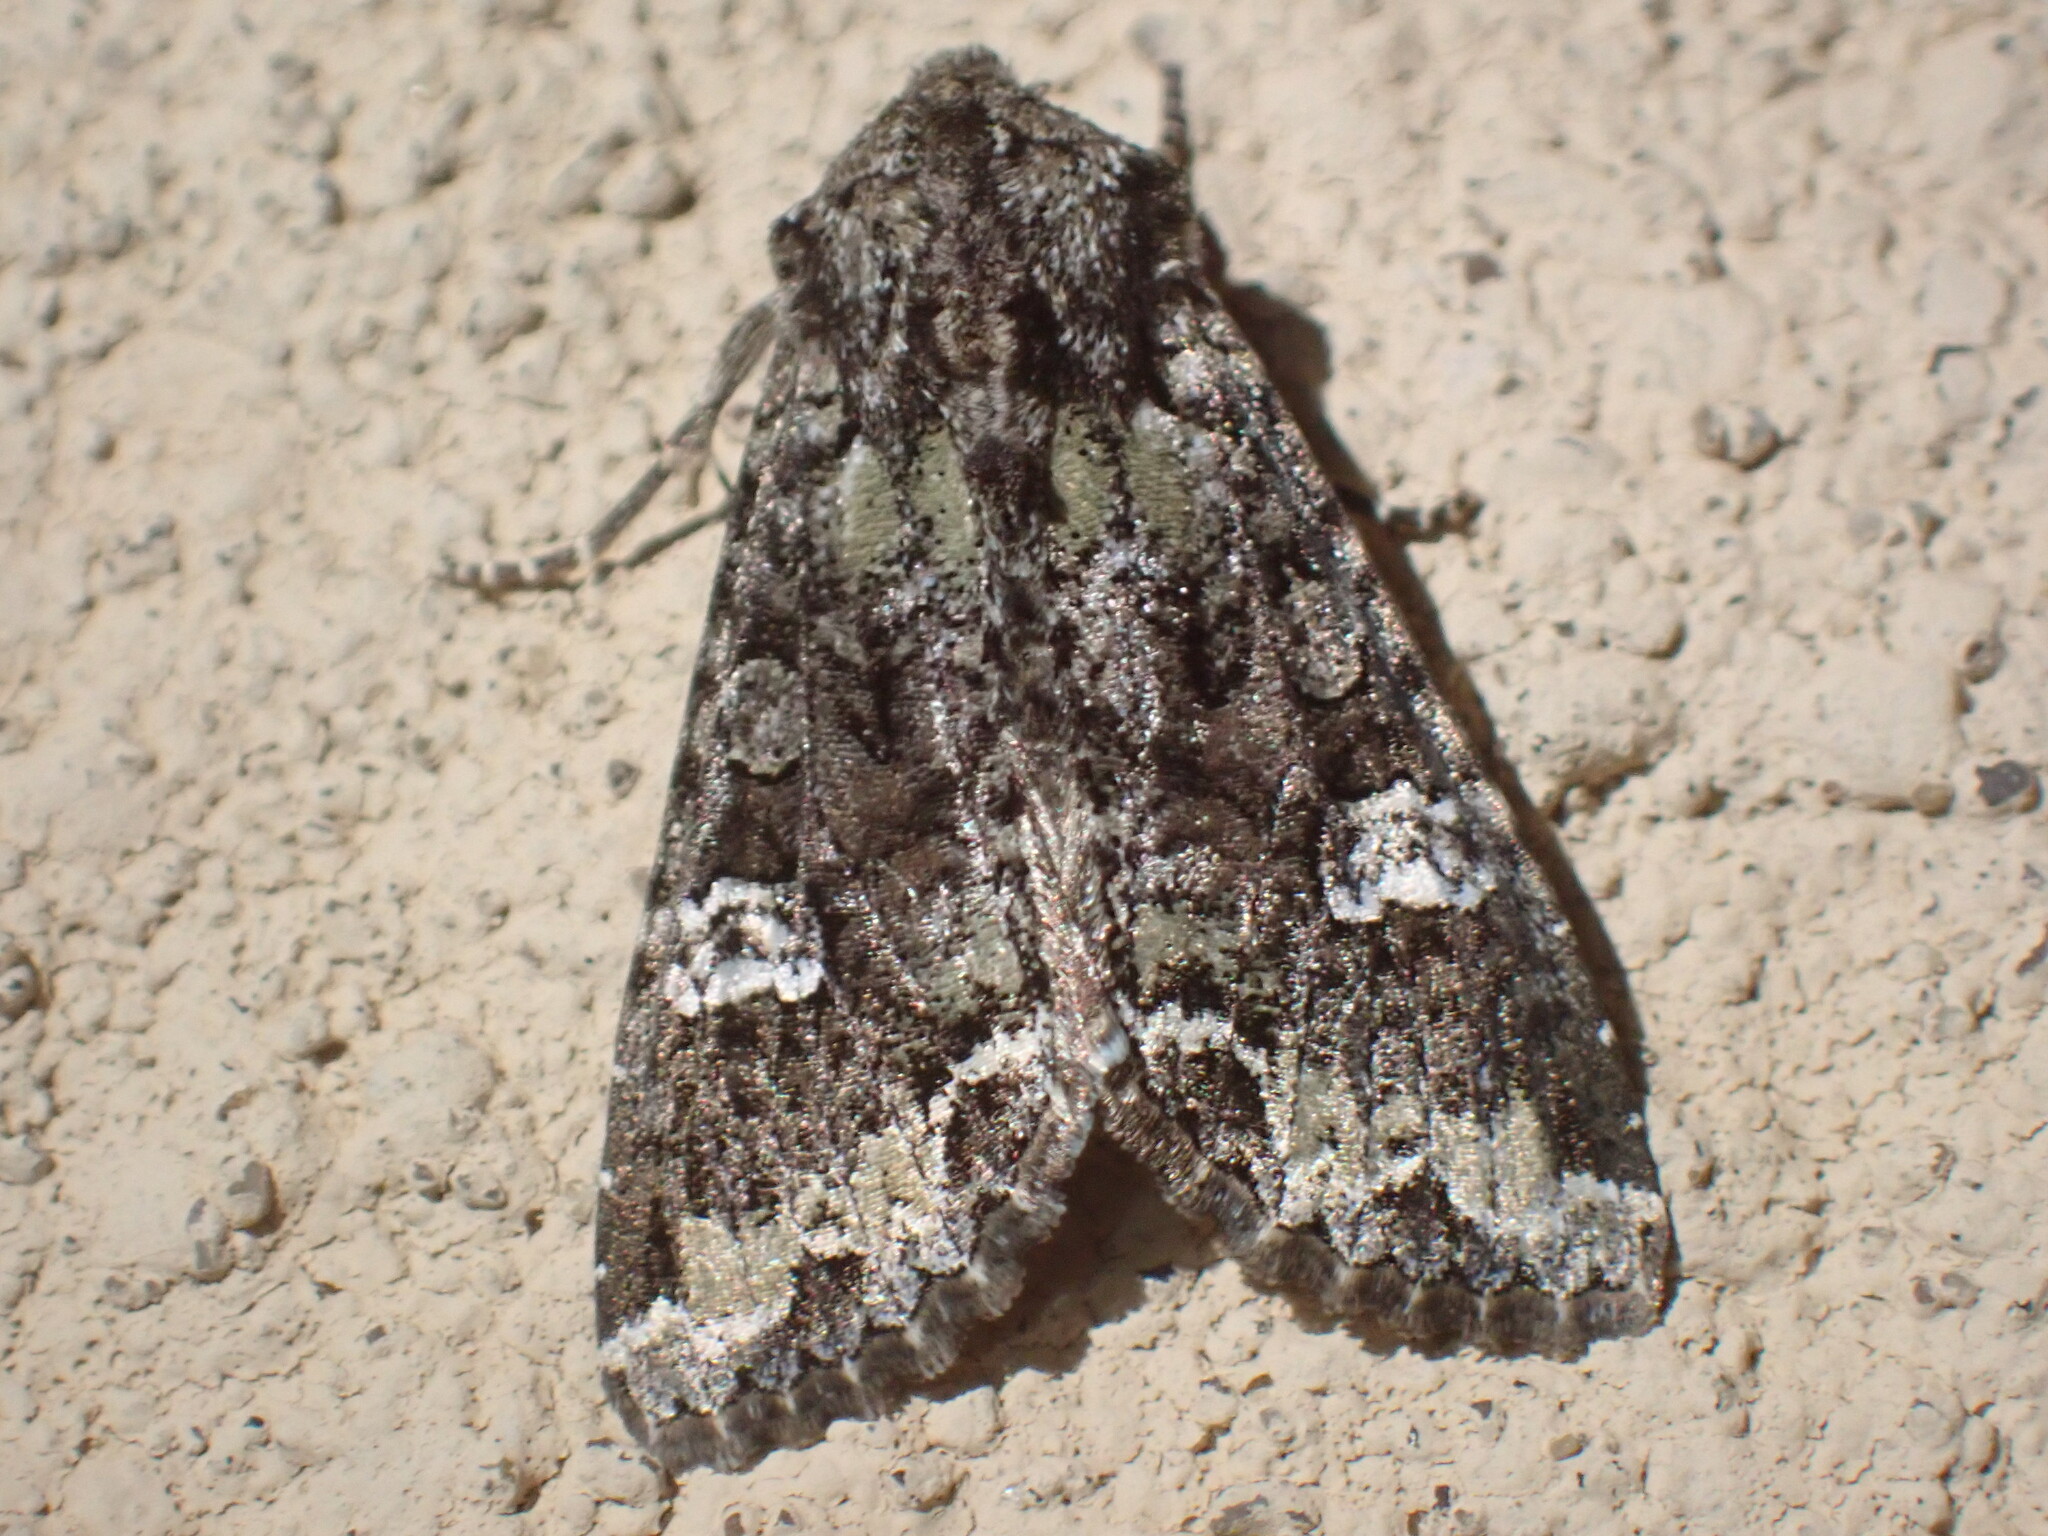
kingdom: Animalia
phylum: Arthropoda
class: Insecta
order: Lepidoptera
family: Noctuidae
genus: Mamestra
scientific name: Mamestra configurata
